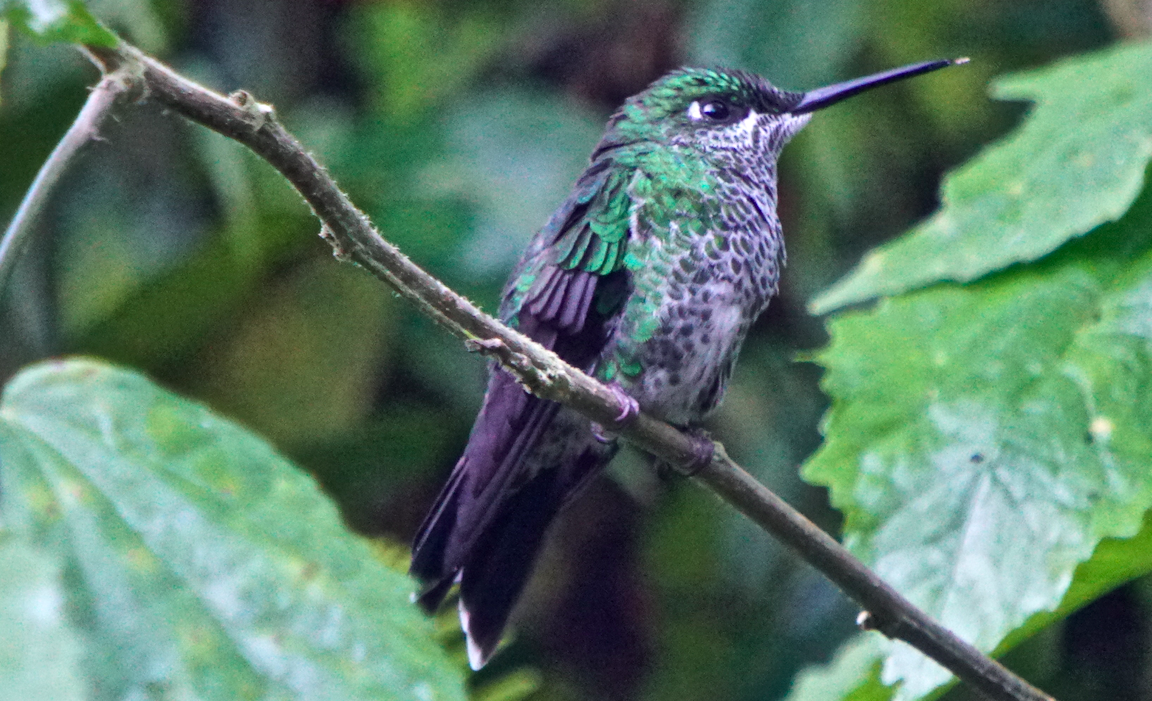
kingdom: Animalia
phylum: Chordata
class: Aves
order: Apodiformes
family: Trochilidae
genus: Heliodoxa
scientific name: Heliodoxa jacula
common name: Green-crowned brilliant
